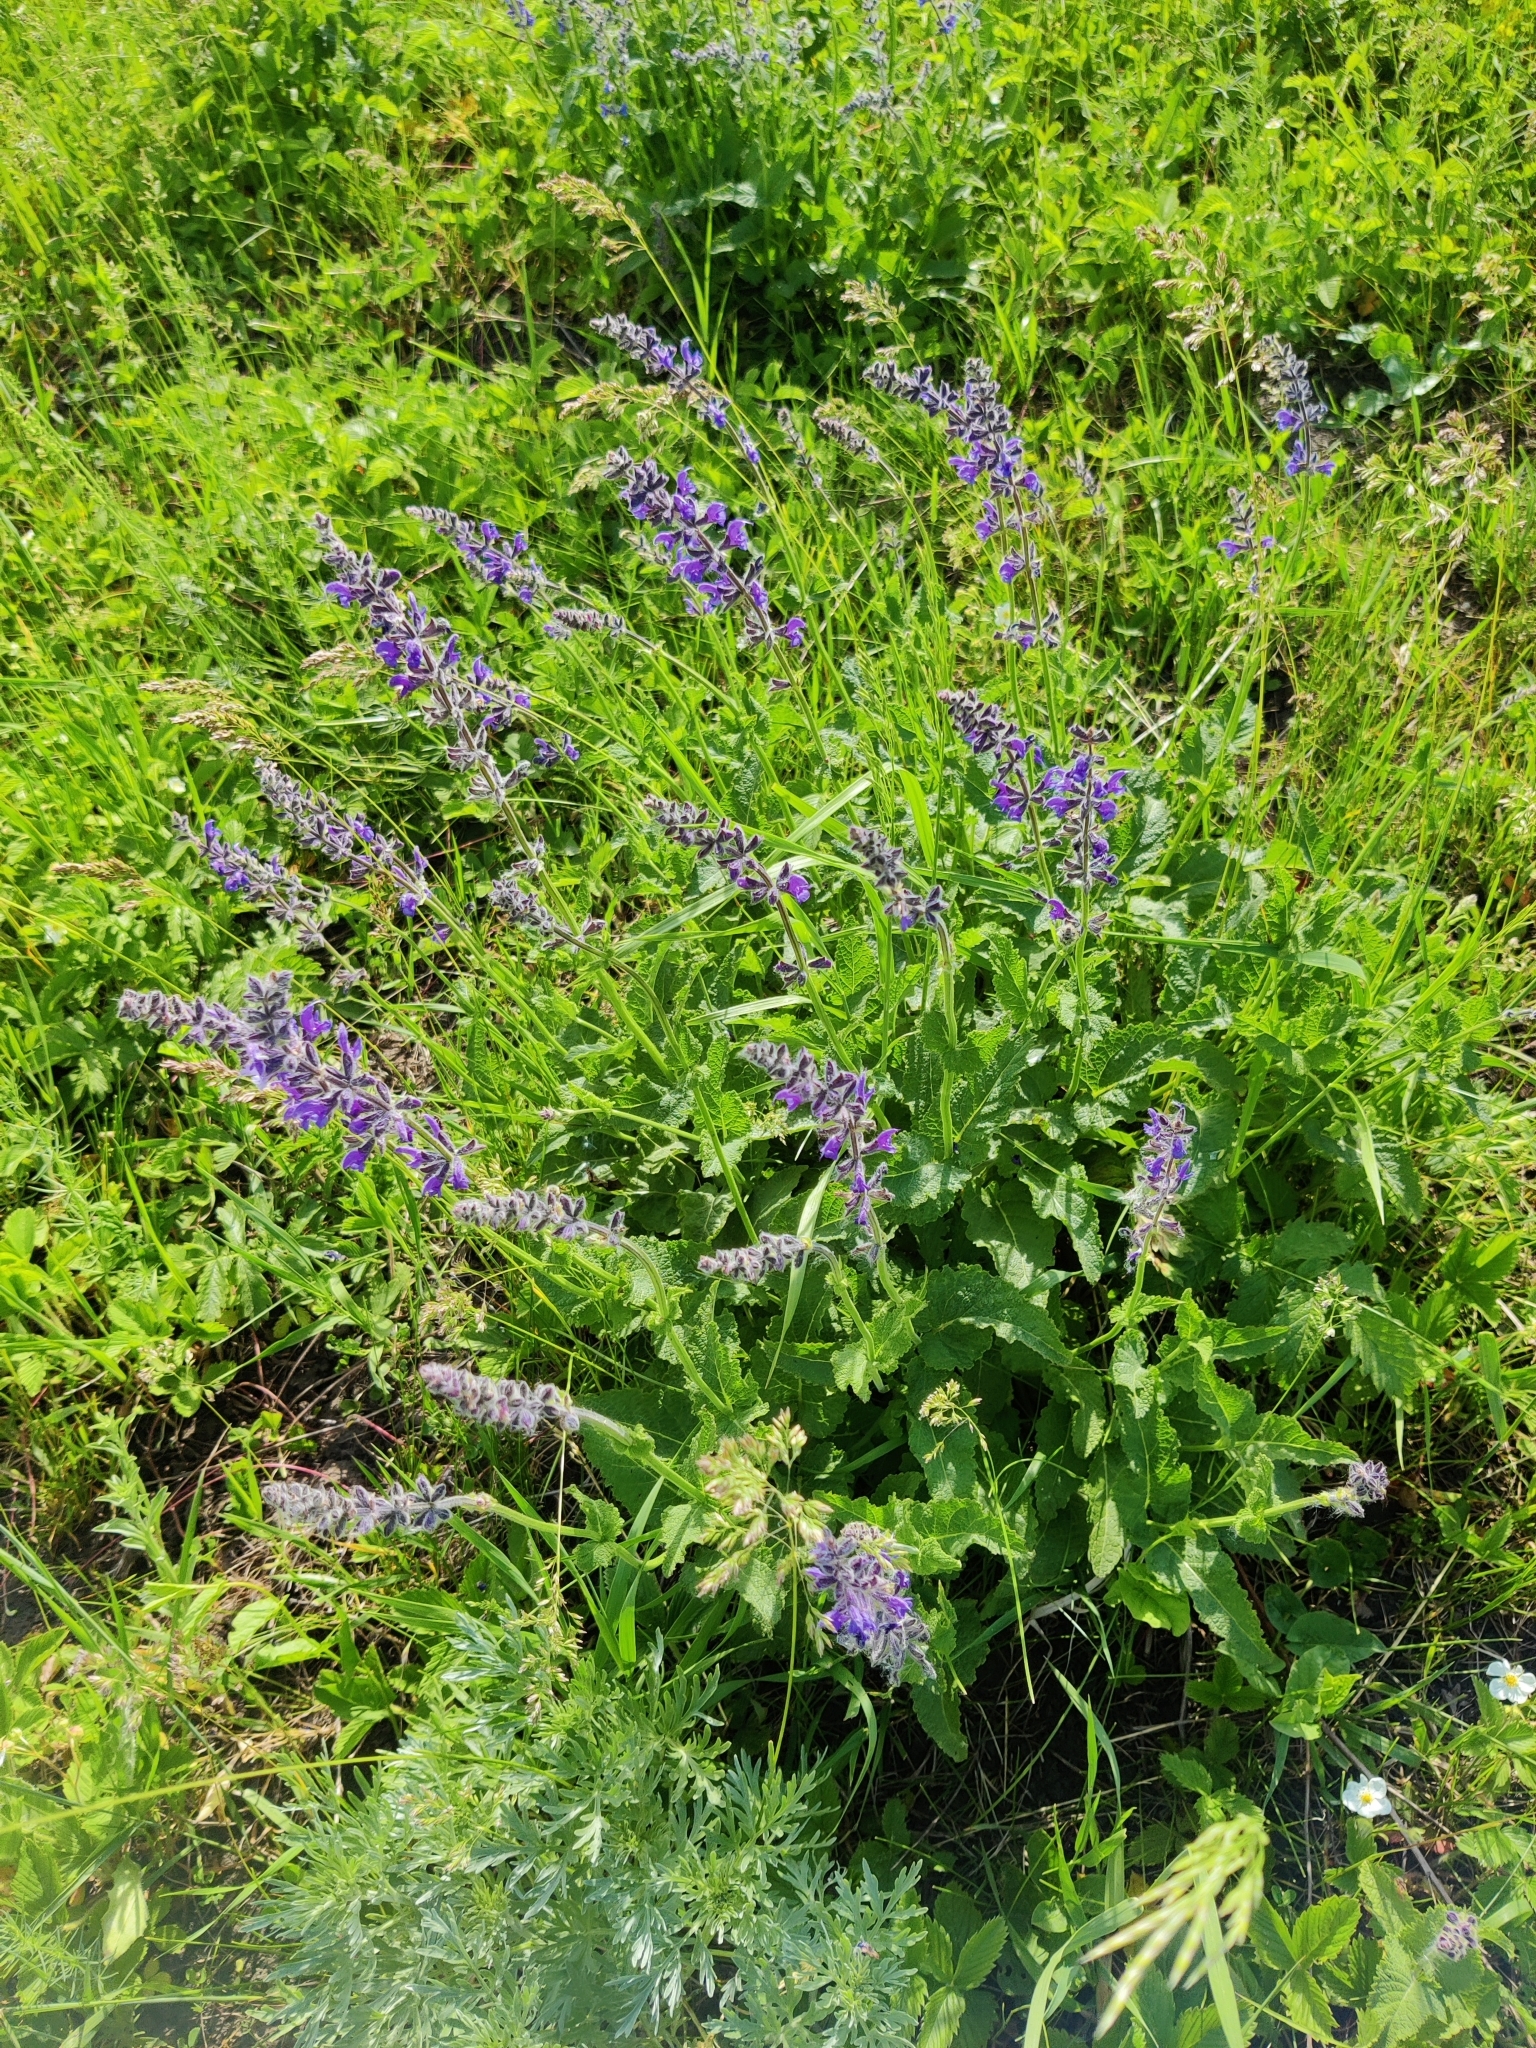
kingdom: Plantae
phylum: Tracheophyta
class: Magnoliopsida
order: Lamiales
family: Lamiaceae
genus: Salvia
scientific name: Salvia dumetorum
